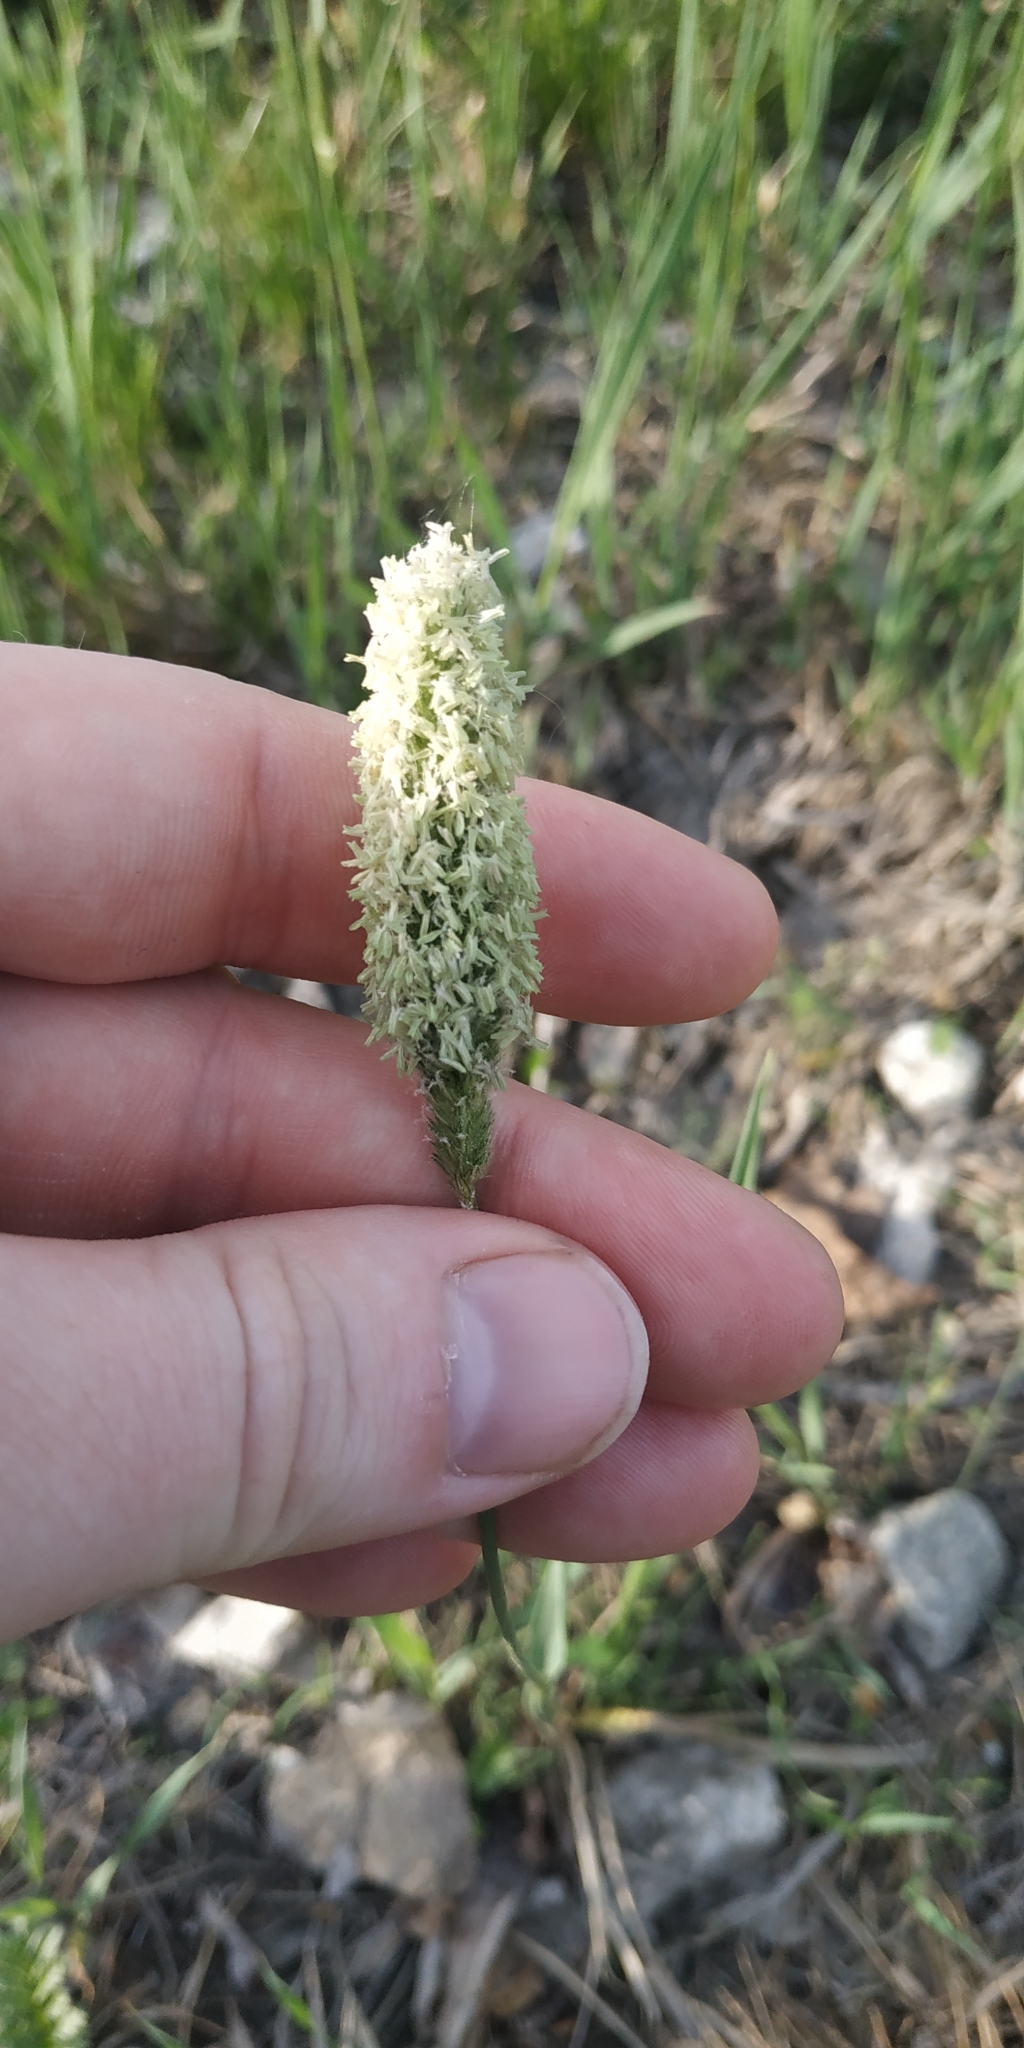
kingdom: Plantae
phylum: Tracheophyta
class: Liliopsida
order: Poales
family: Poaceae
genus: Alopecurus
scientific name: Alopecurus pratensis
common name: Meadow foxtail
